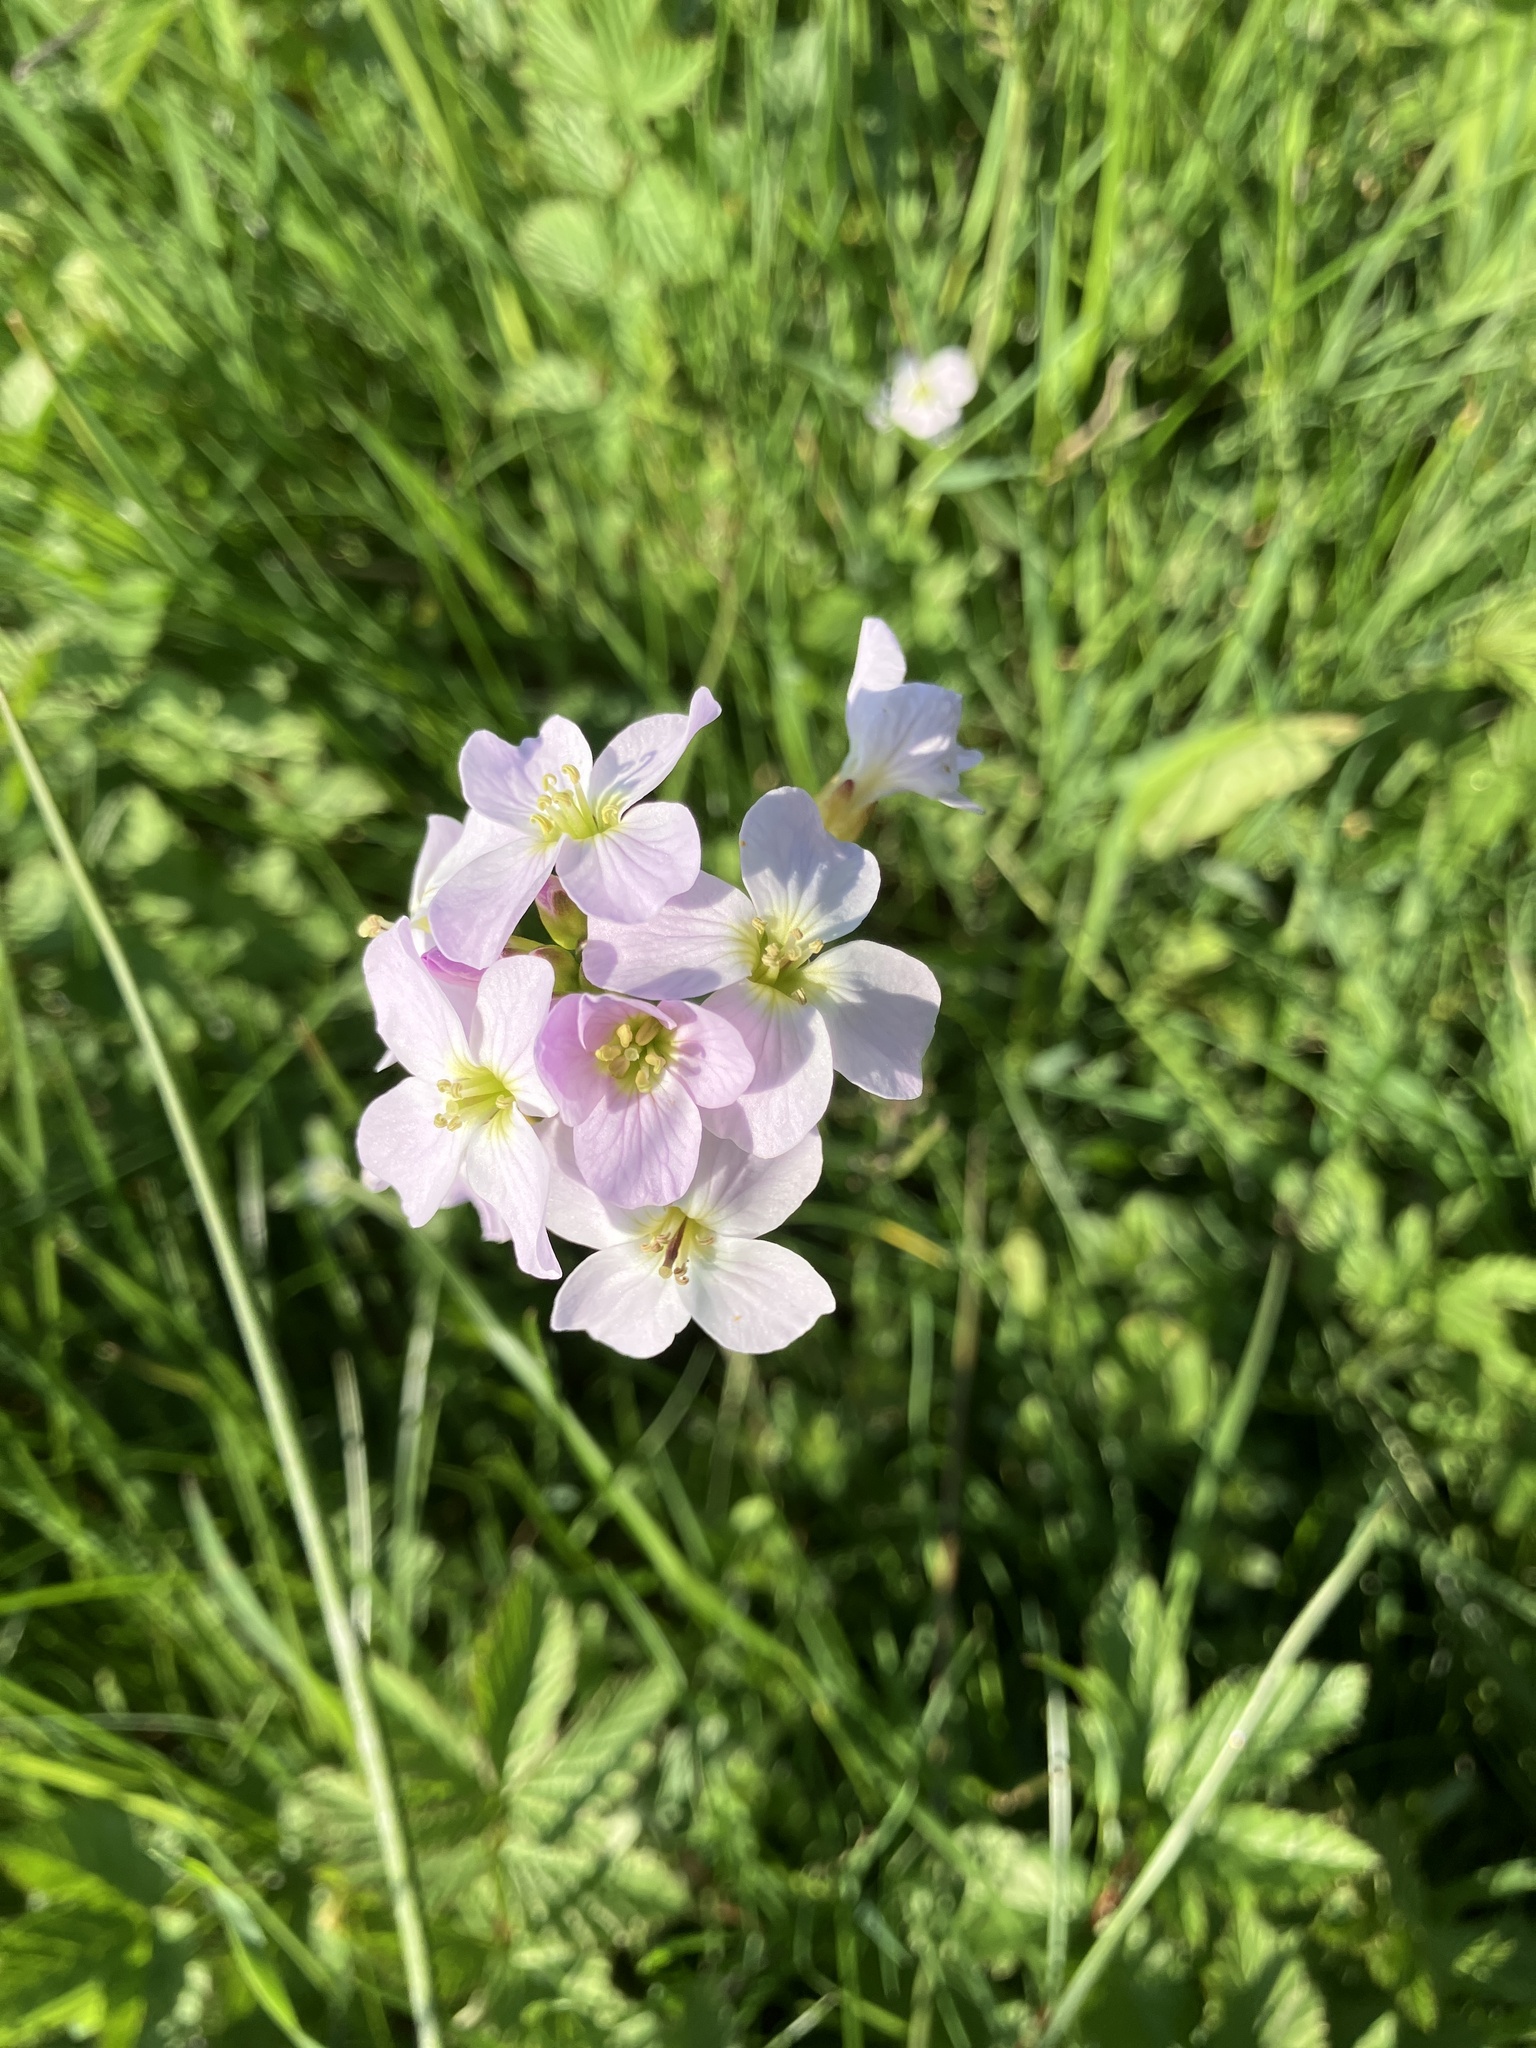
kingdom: Plantae
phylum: Tracheophyta
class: Magnoliopsida
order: Brassicales
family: Brassicaceae
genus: Cardamine
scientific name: Cardamine pratensis
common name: Cuckoo flower
